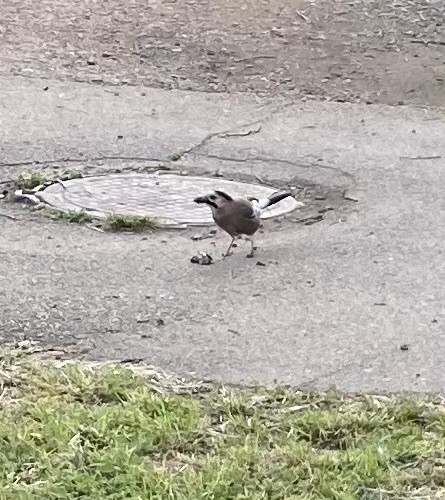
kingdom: Animalia
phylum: Chordata
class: Aves
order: Passeriformes
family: Corvidae
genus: Garrulus
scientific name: Garrulus glandarius
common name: Eurasian jay
